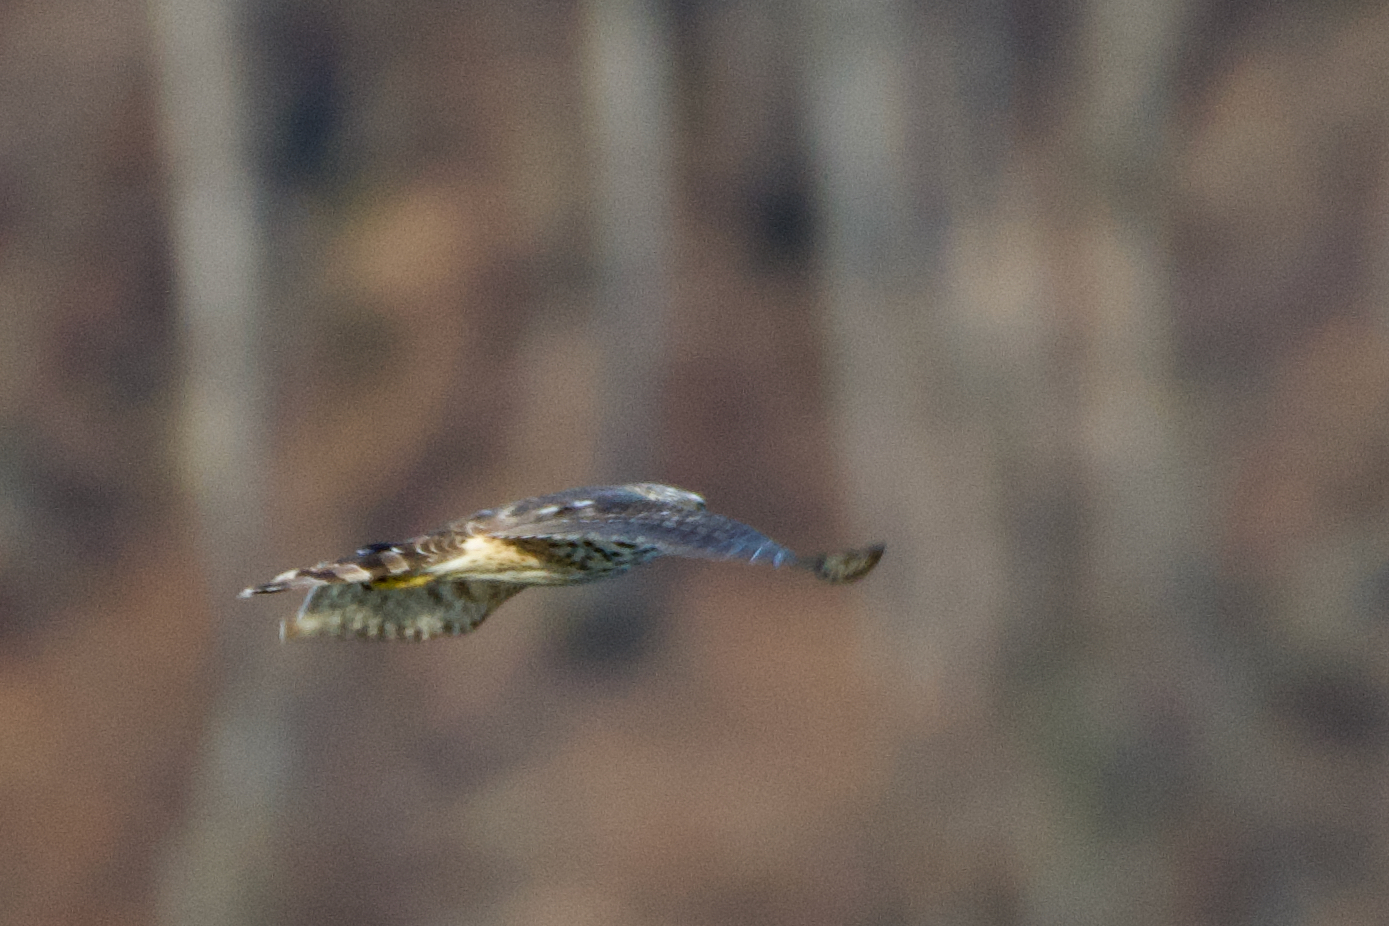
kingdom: Animalia
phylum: Chordata
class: Aves
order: Accipitriformes
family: Accipitridae
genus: Accipiter
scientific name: Accipiter gentilis
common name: Northern goshawk
